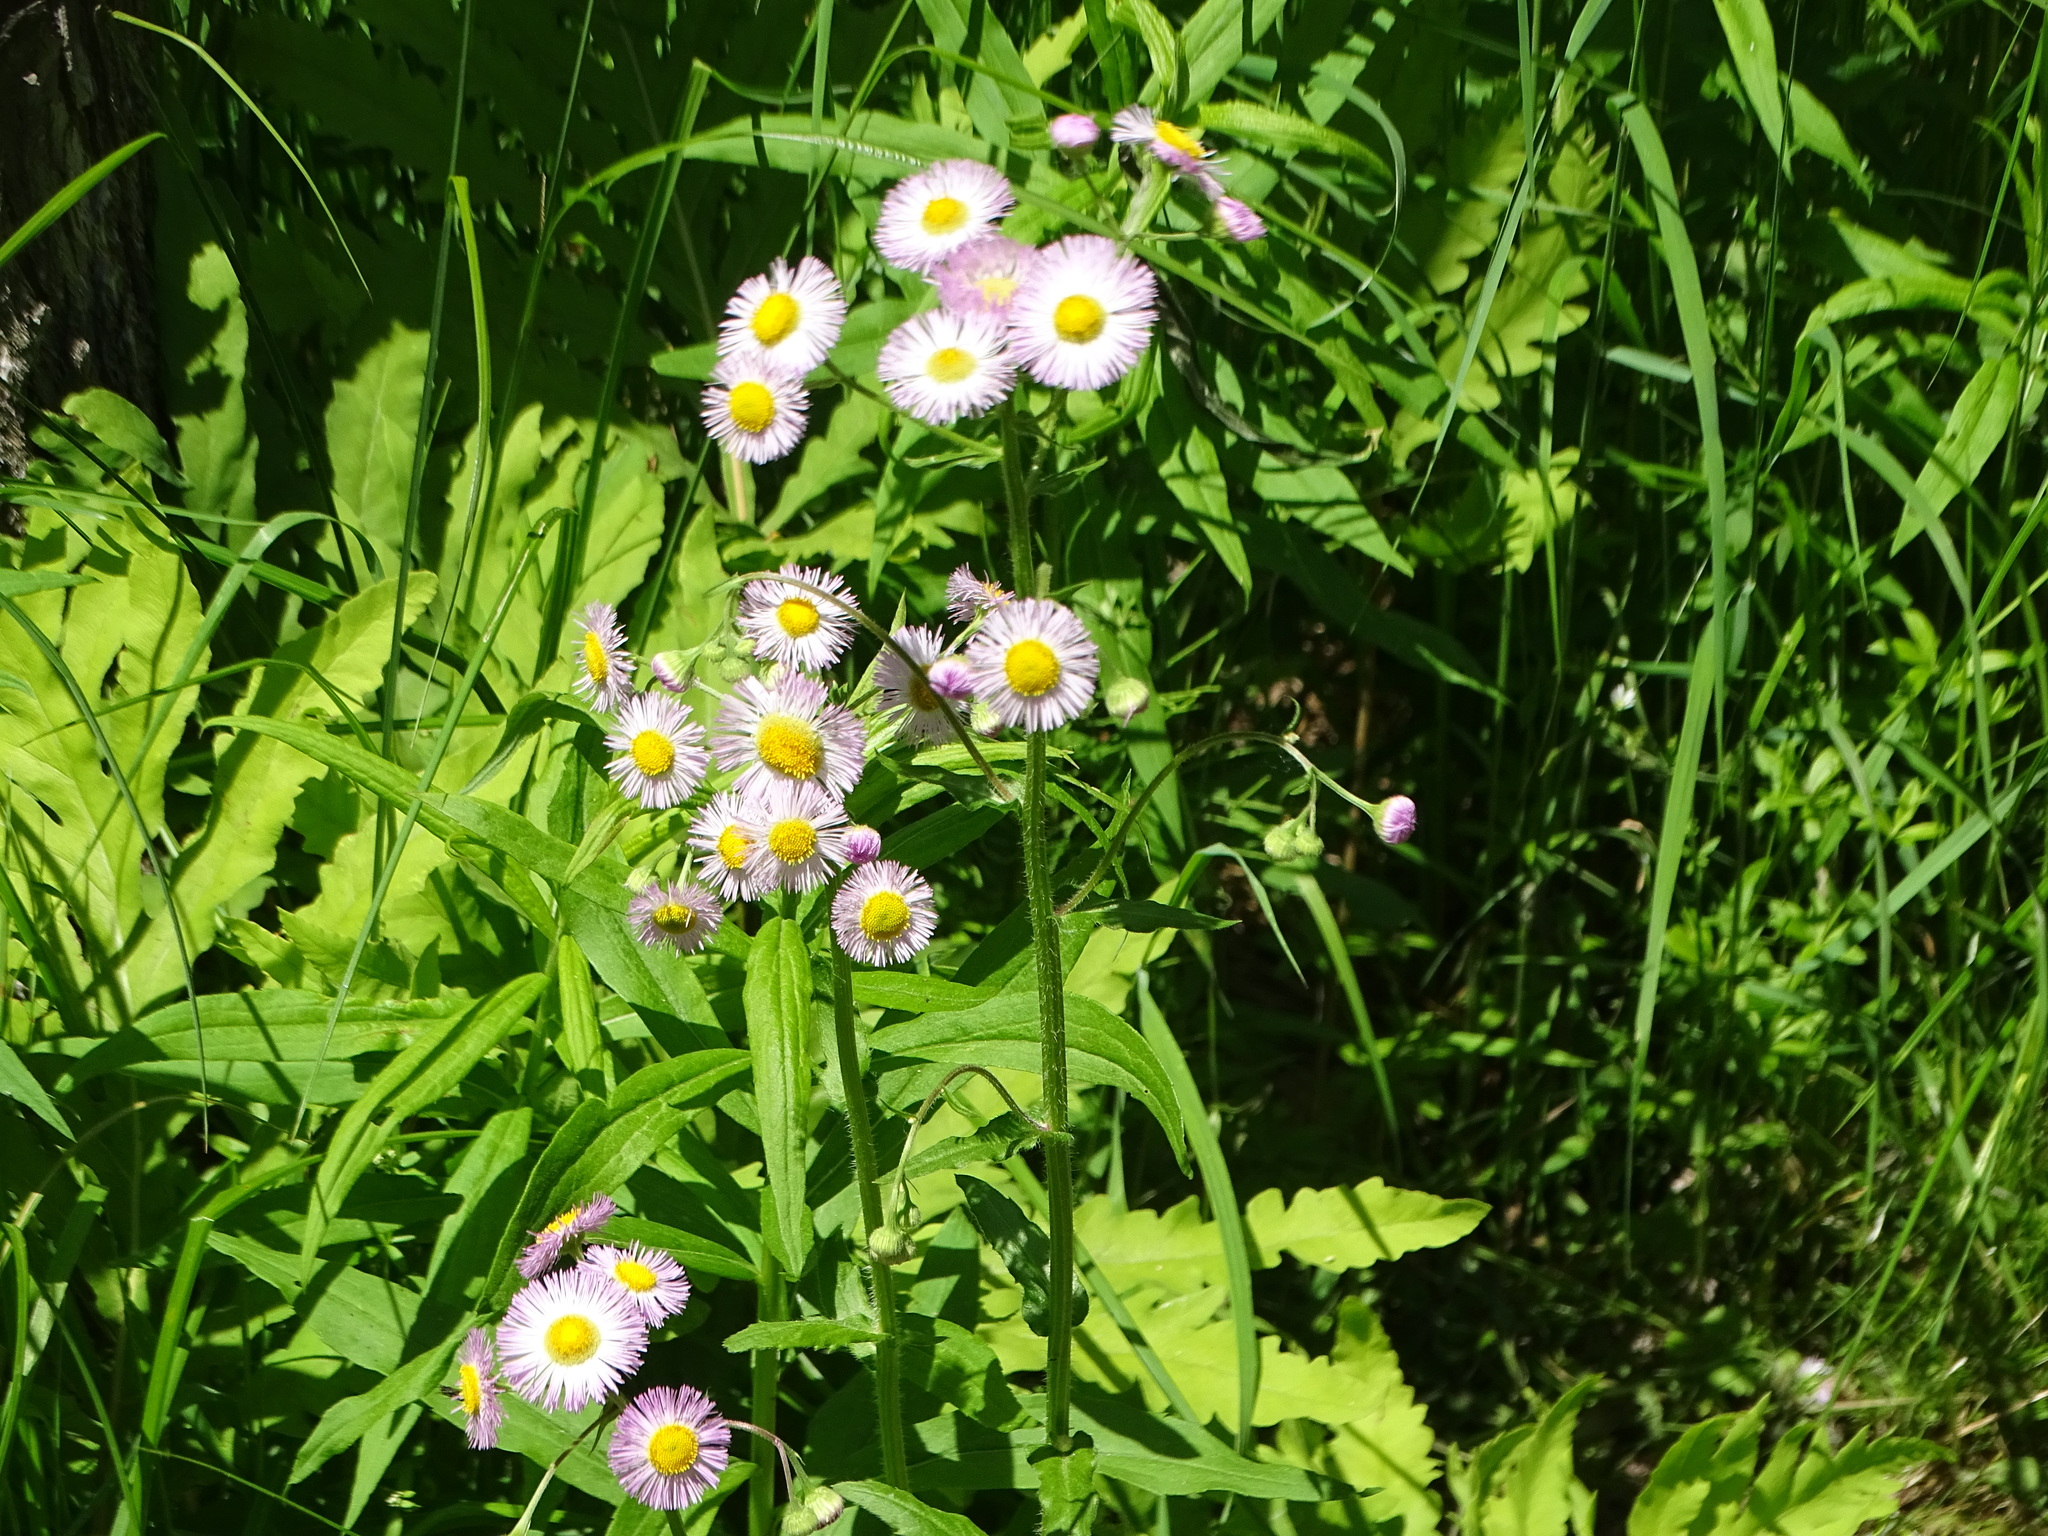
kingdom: Plantae
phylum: Tracheophyta
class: Magnoliopsida
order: Asterales
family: Asteraceae
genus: Erigeron
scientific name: Erigeron philadelphicus
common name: Robin's-plantain
